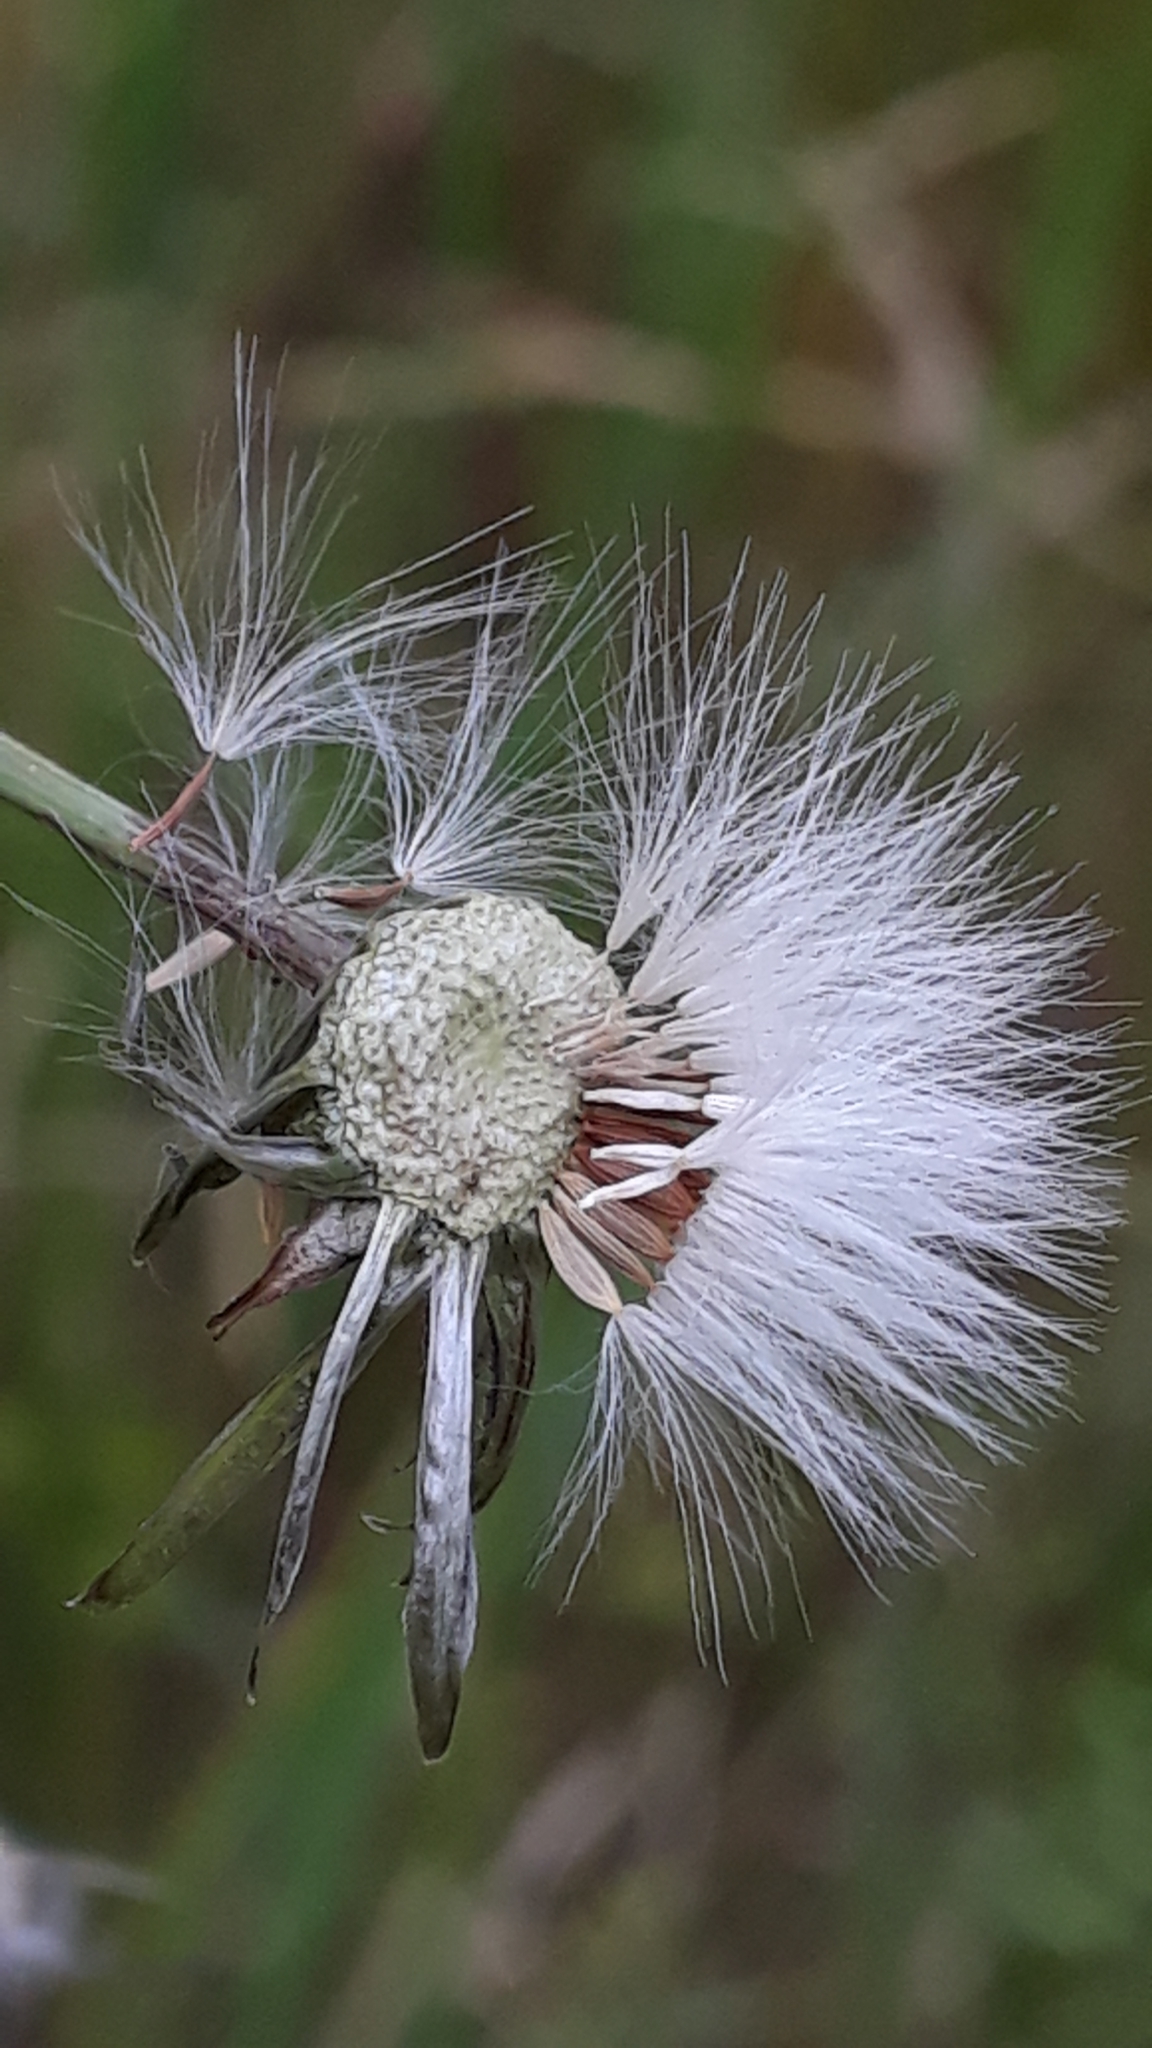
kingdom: Plantae
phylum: Tracheophyta
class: Magnoliopsida
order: Asterales
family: Asteraceae
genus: Sonchus
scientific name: Sonchus asper
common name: Prickly sow-thistle
